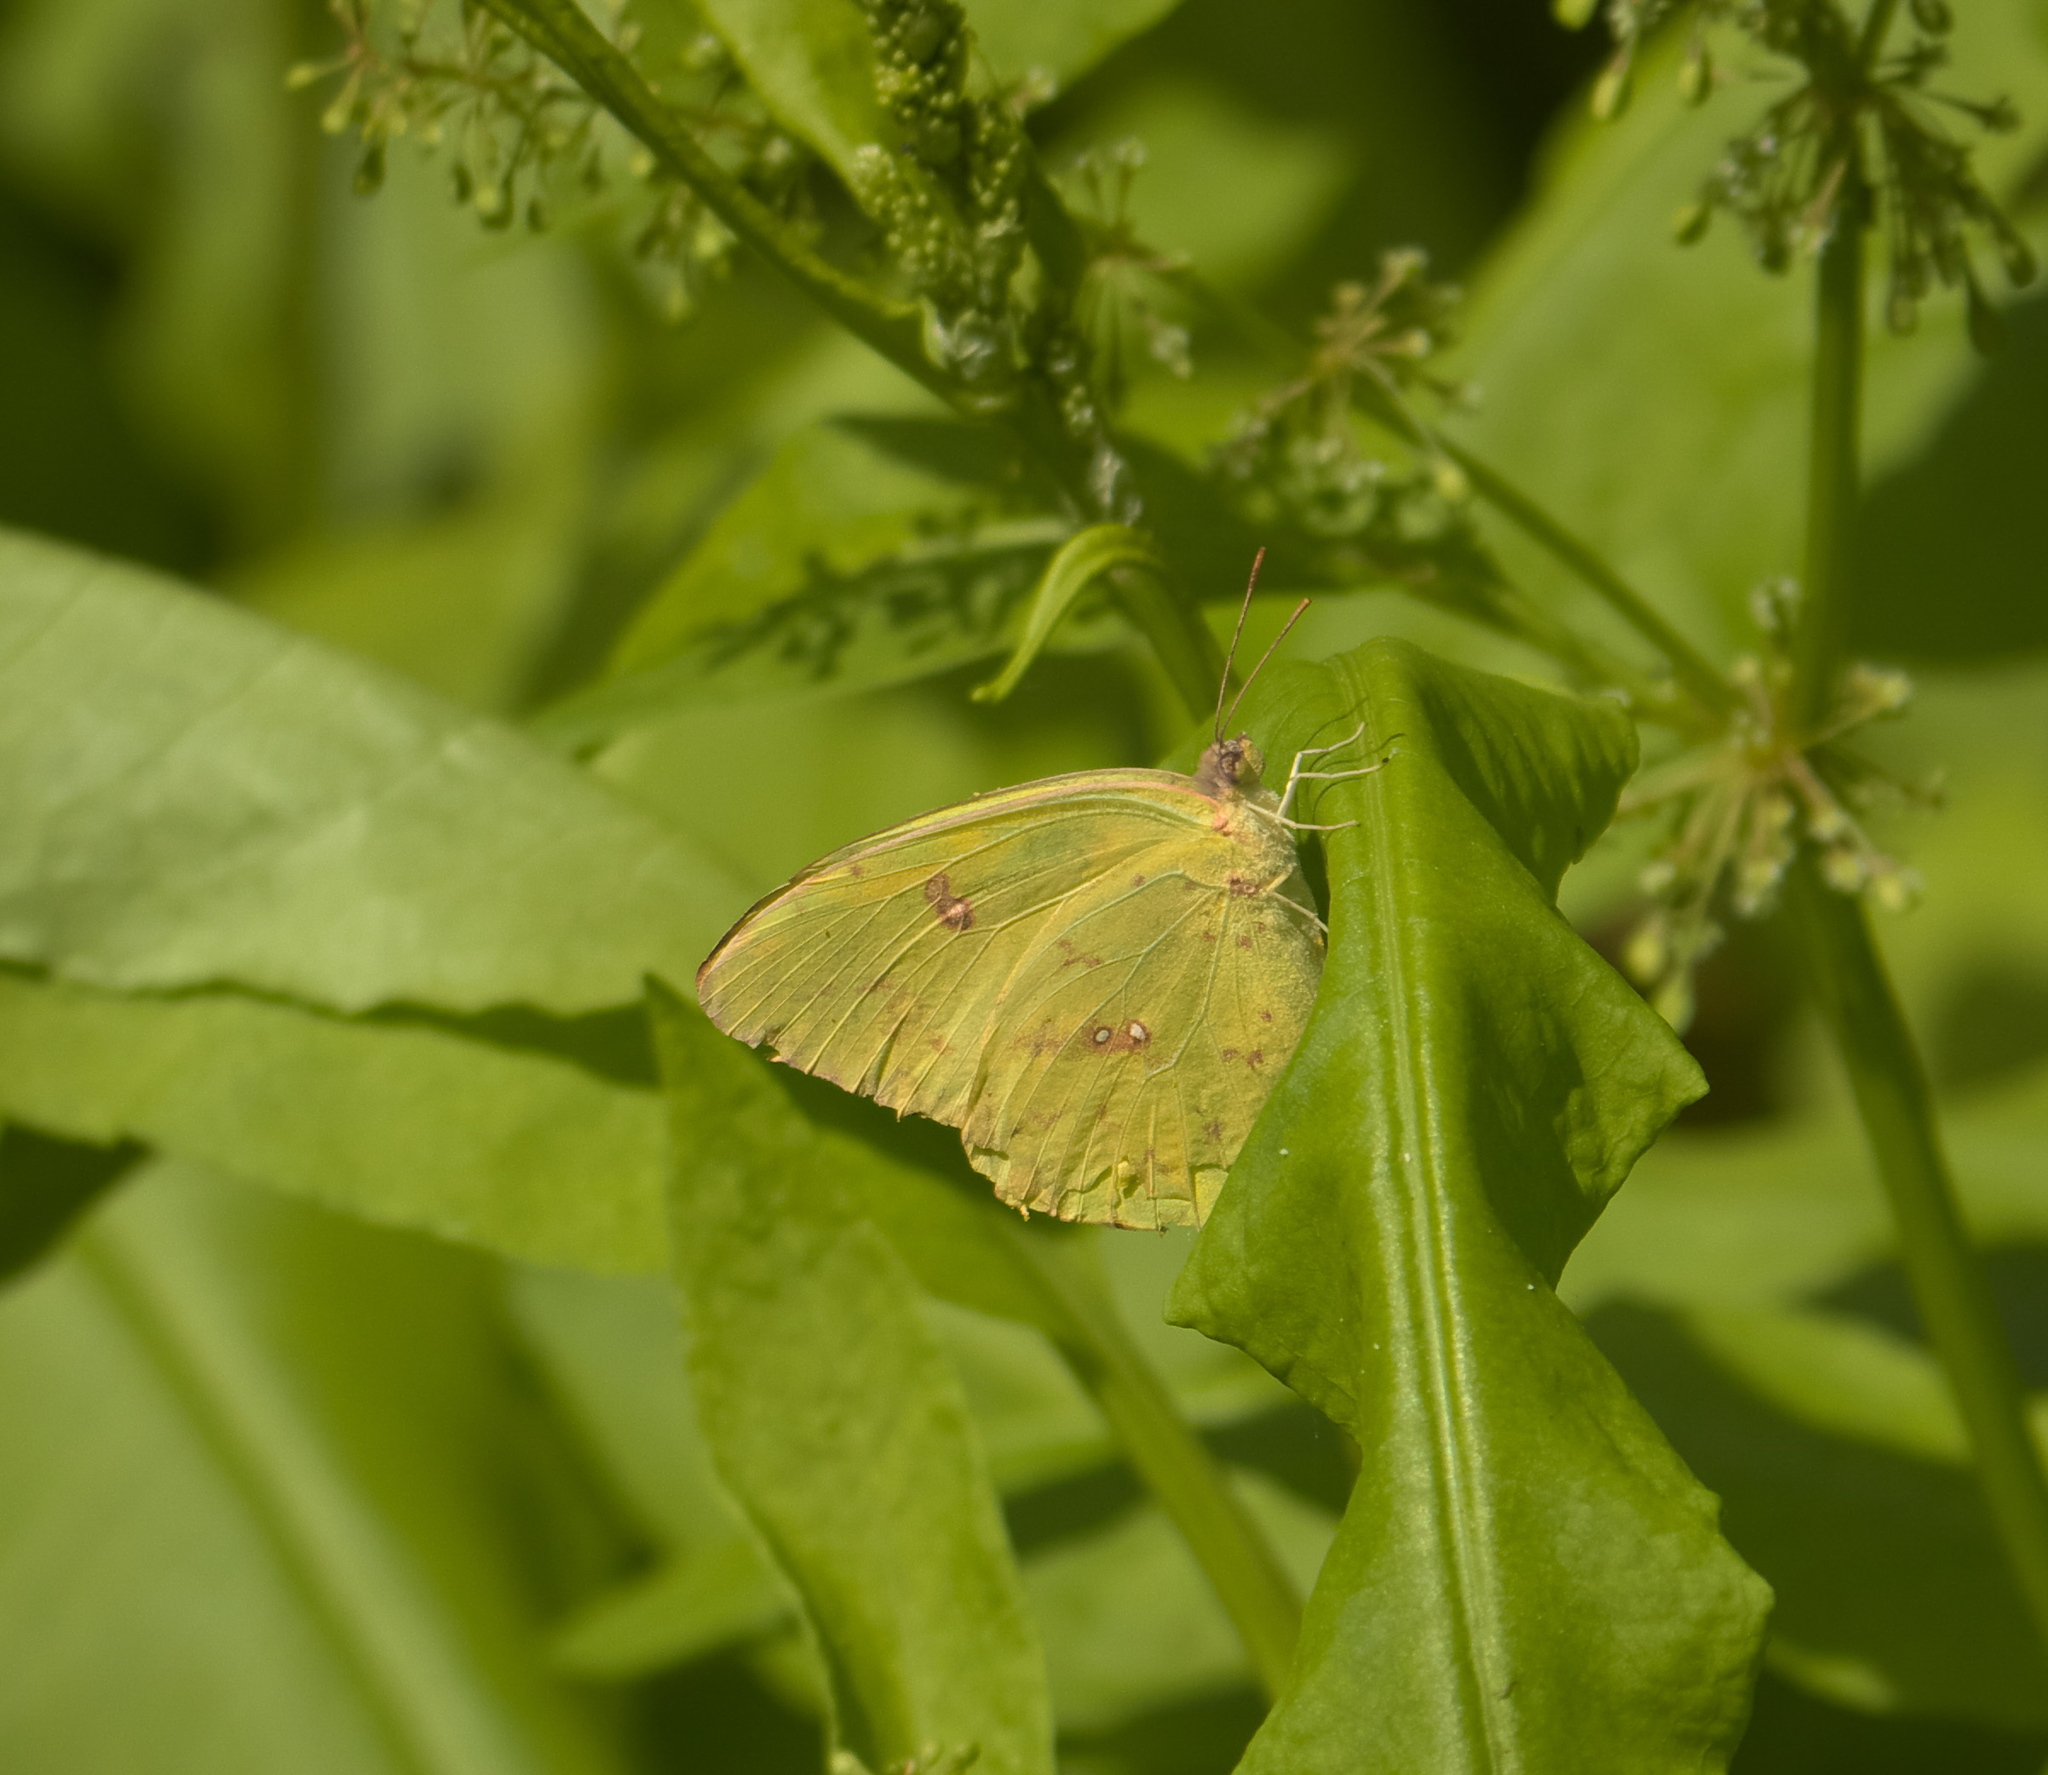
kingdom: Animalia
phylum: Arthropoda
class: Insecta
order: Lepidoptera
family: Pieridae
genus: Phoebis
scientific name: Phoebis sennae
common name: Cloudless sulphur
